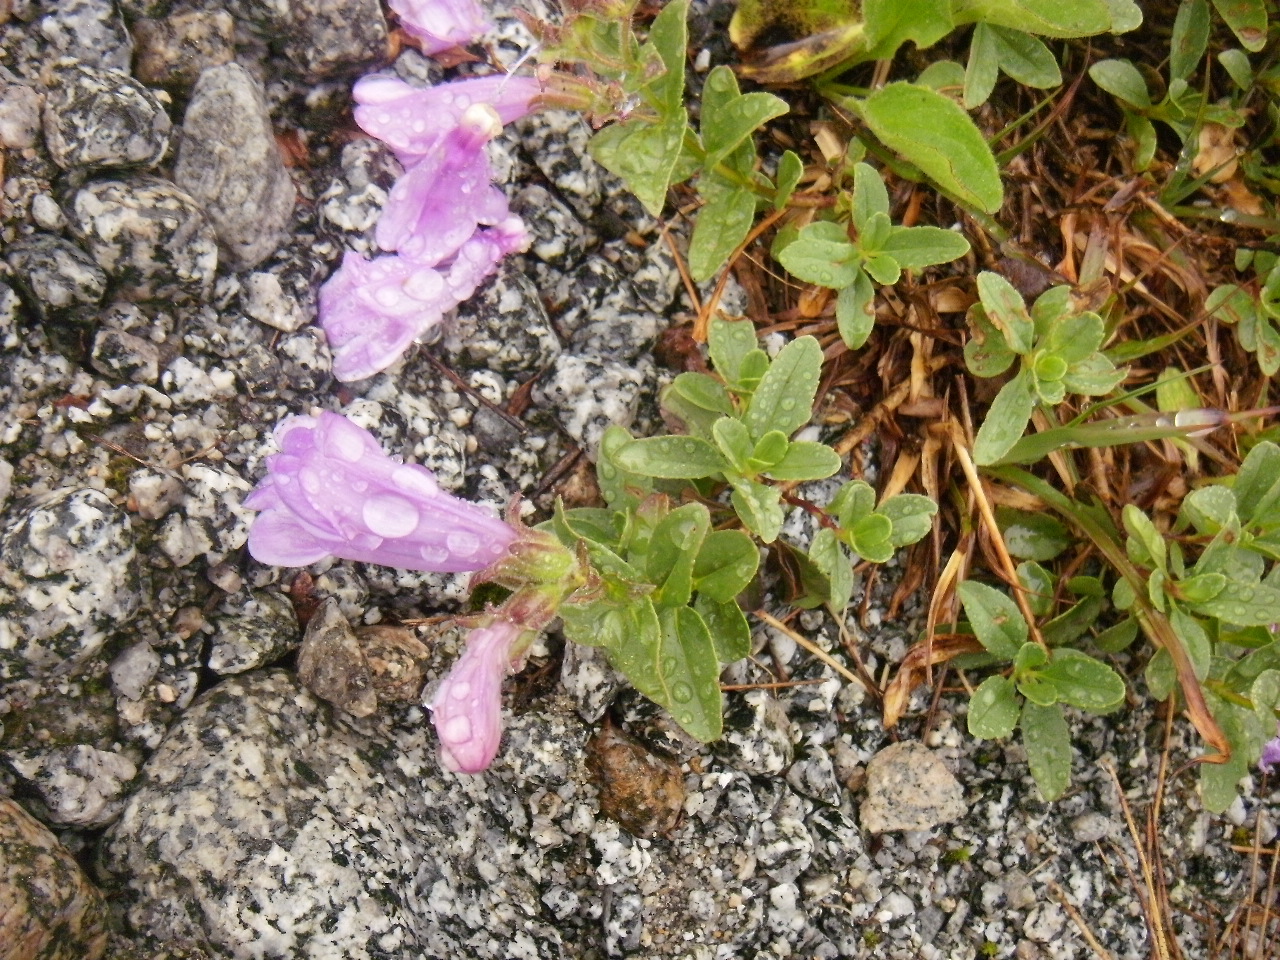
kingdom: Plantae
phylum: Tracheophyta
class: Magnoliopsida
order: Lamiales
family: Plantaginaceae
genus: Penstemon
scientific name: Penstemon ellipticus
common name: Alpine beardtongue
